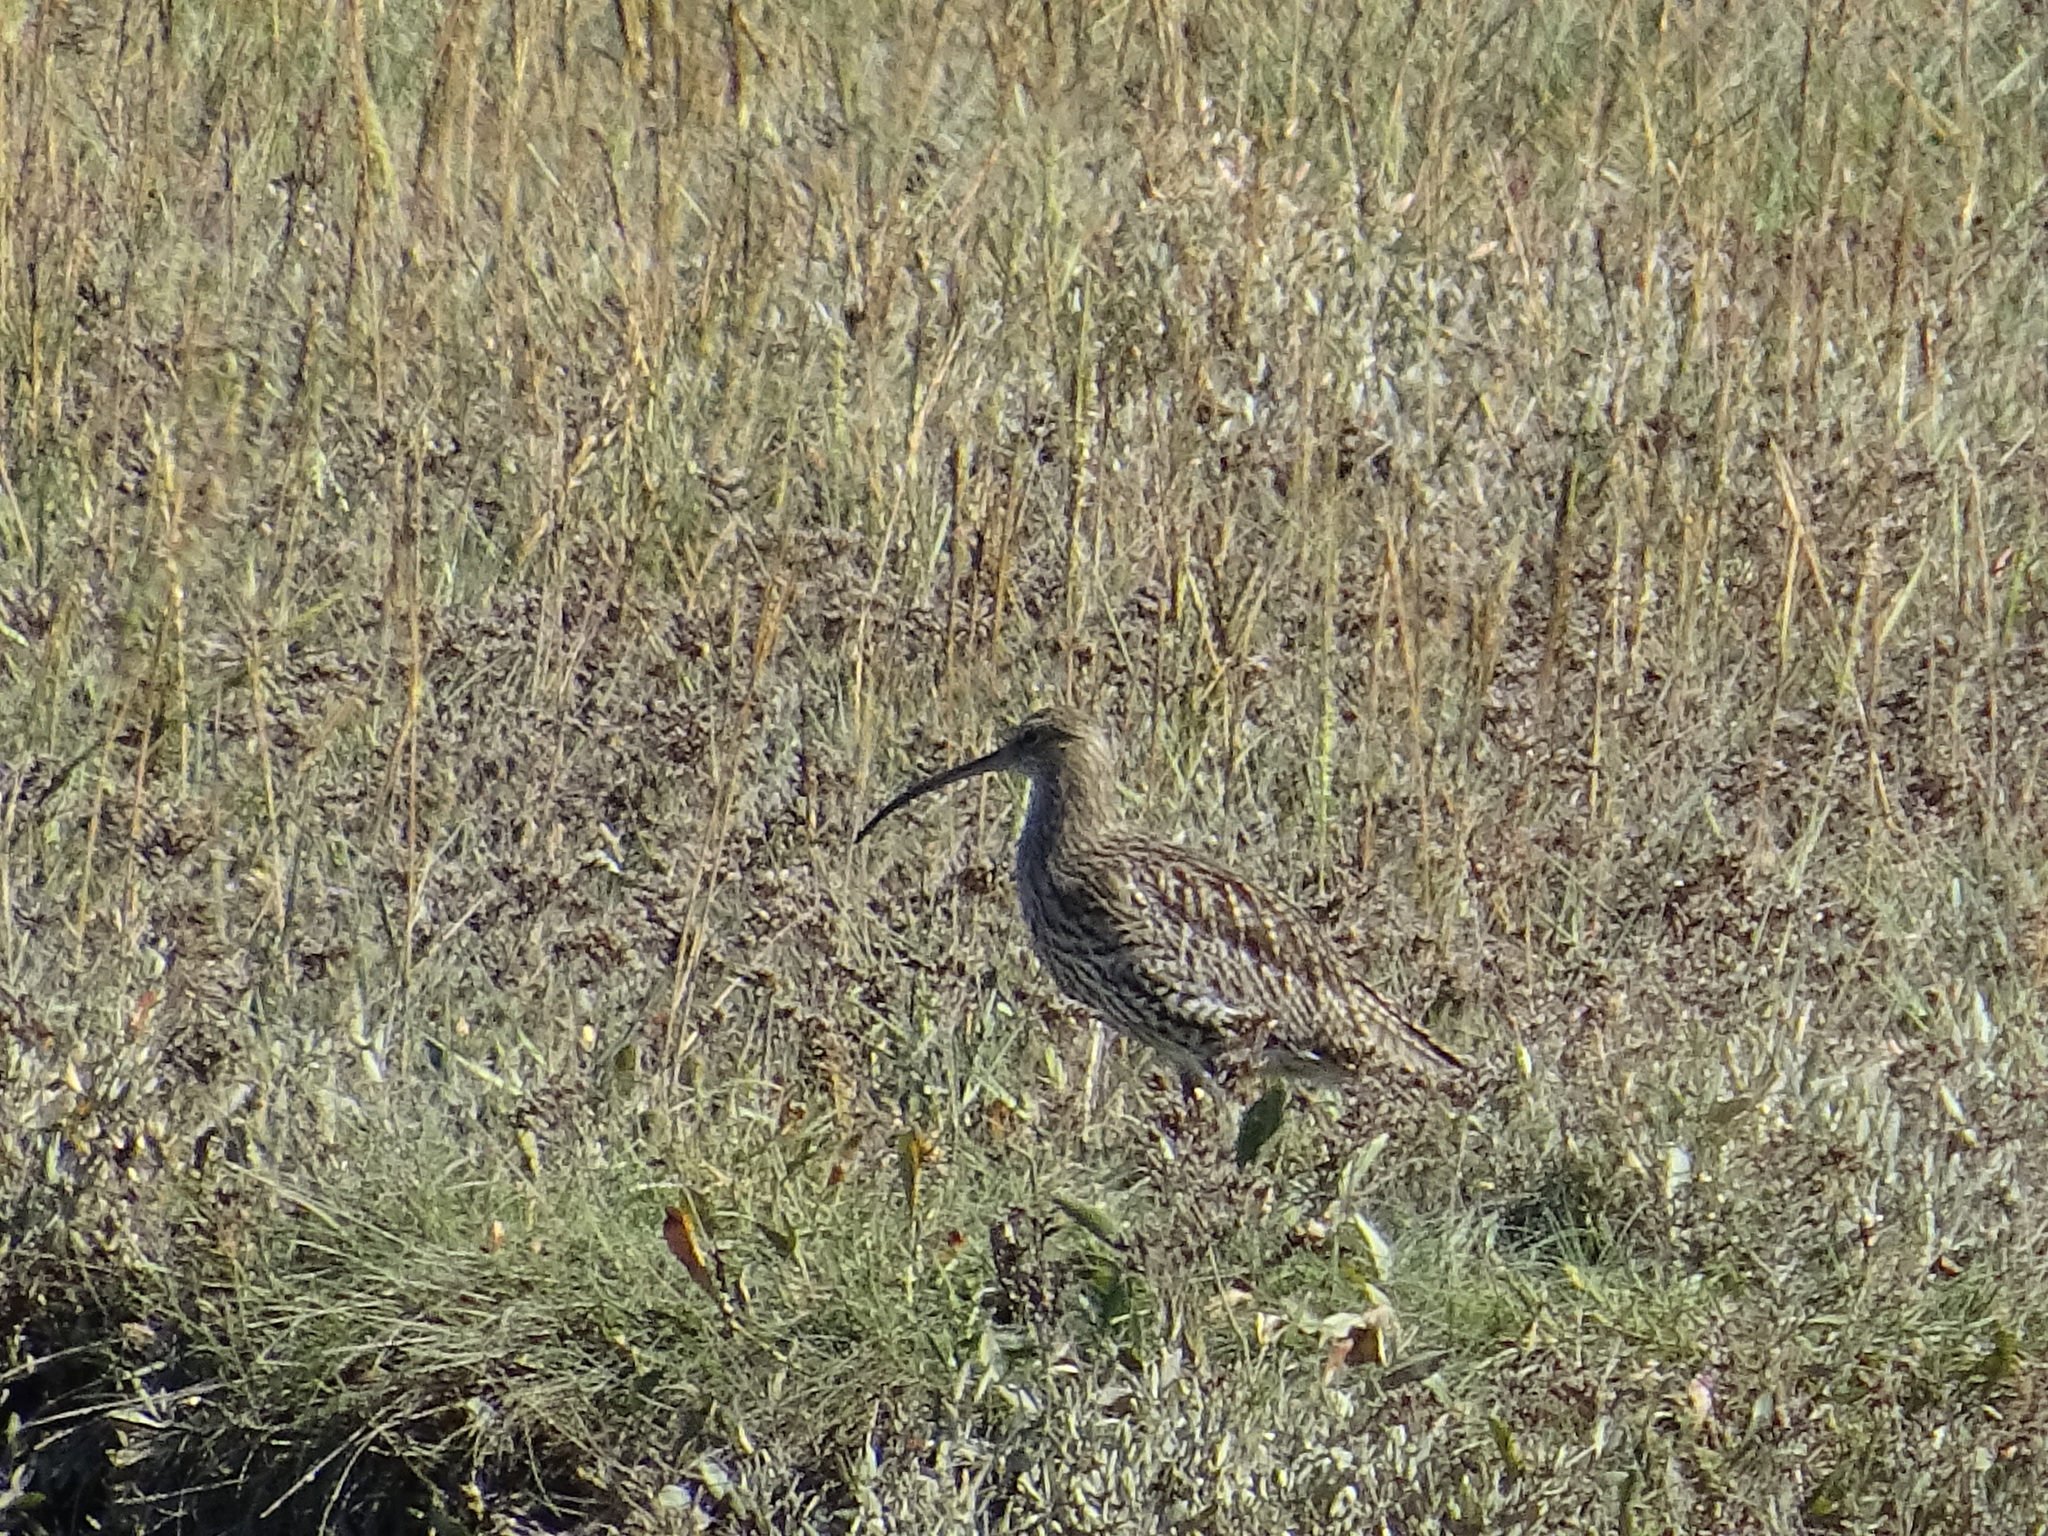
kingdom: Animalia
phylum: Chordata
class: Aves
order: Charadriiformes
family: Scolopacidae
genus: Numenius
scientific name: Numenius arquata
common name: Eurasian curlew
